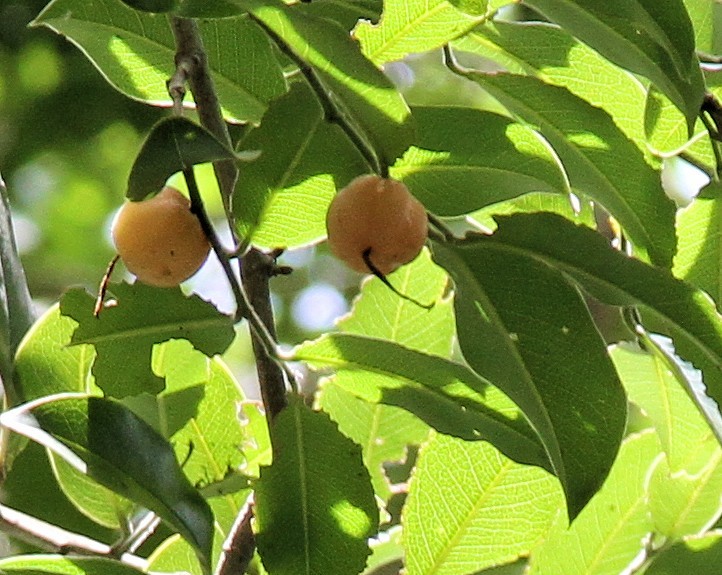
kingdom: Plantae
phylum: Tracheophyta
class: Magnoliopsida
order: Rosales
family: Cannabaceae
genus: Chaetachme
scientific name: Chaetachme aristata
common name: Thorny elm
